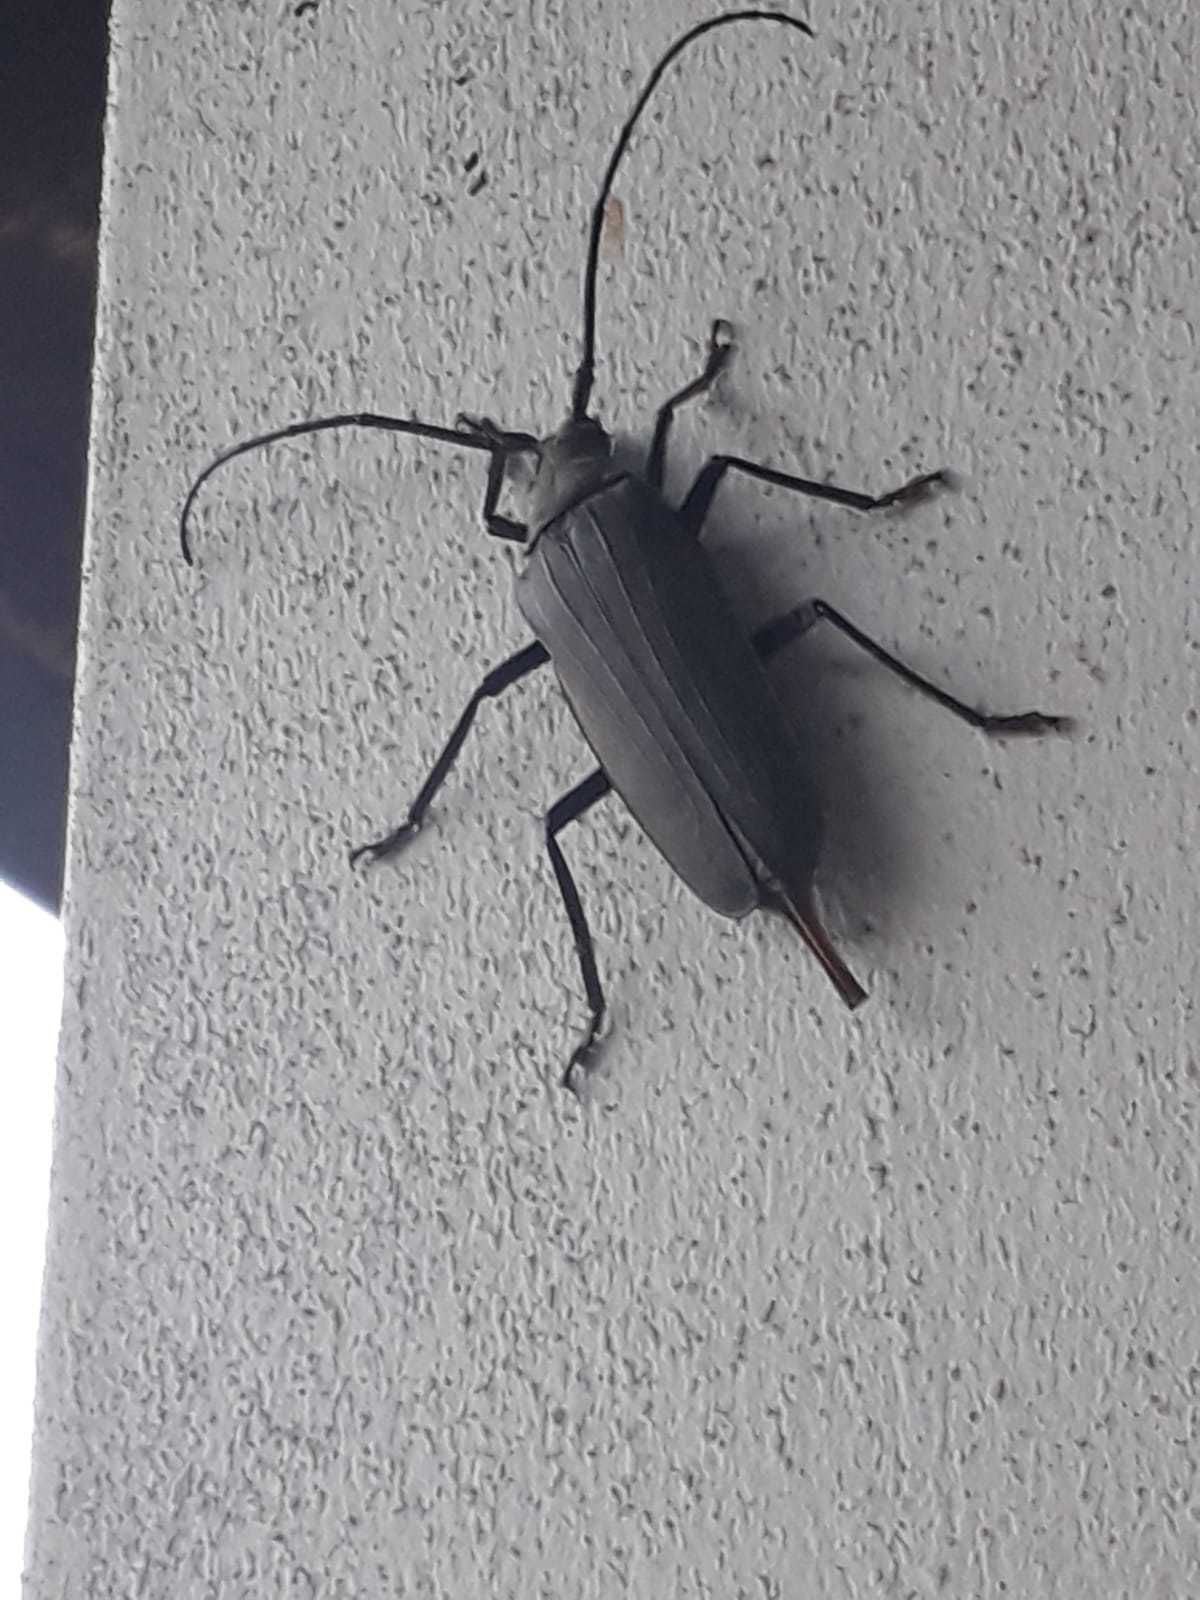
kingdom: Animalia
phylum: Arthropoda
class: Insecta
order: Coleoptera
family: Cerambycidae
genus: Aegosoma
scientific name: Aegosoma scabricorne
